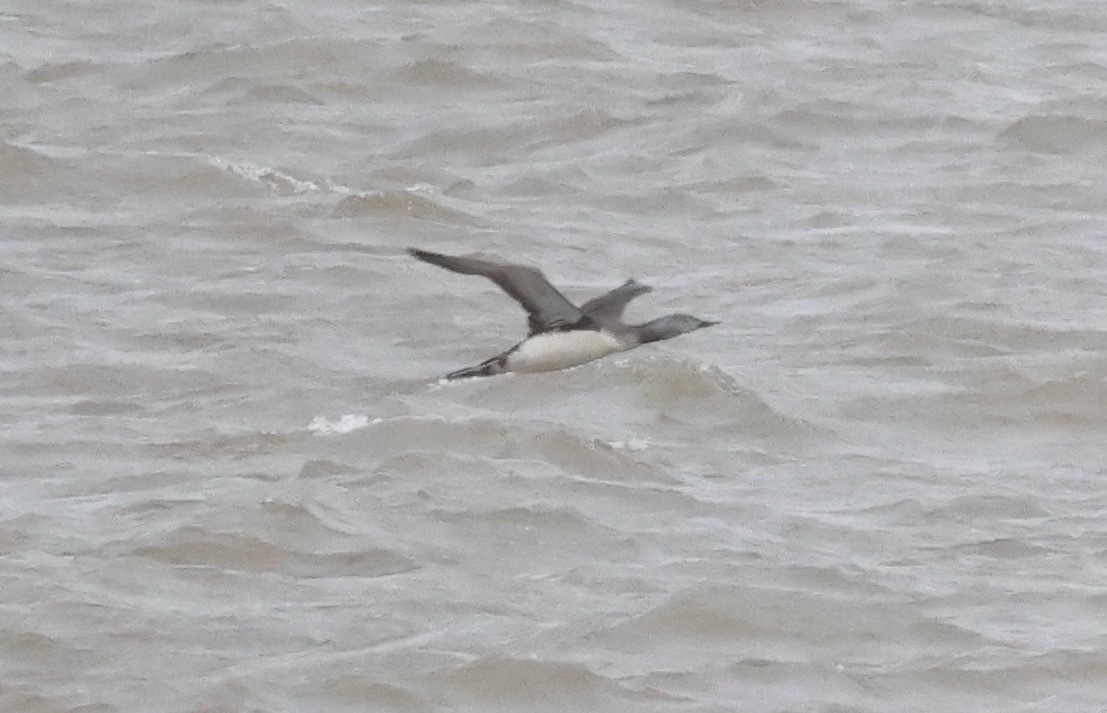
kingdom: Animalia
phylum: Chordata
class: Aves
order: Gaviiformes
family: Gaviidae
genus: Gavia
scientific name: Gavia stellata
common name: Red-throated loon
